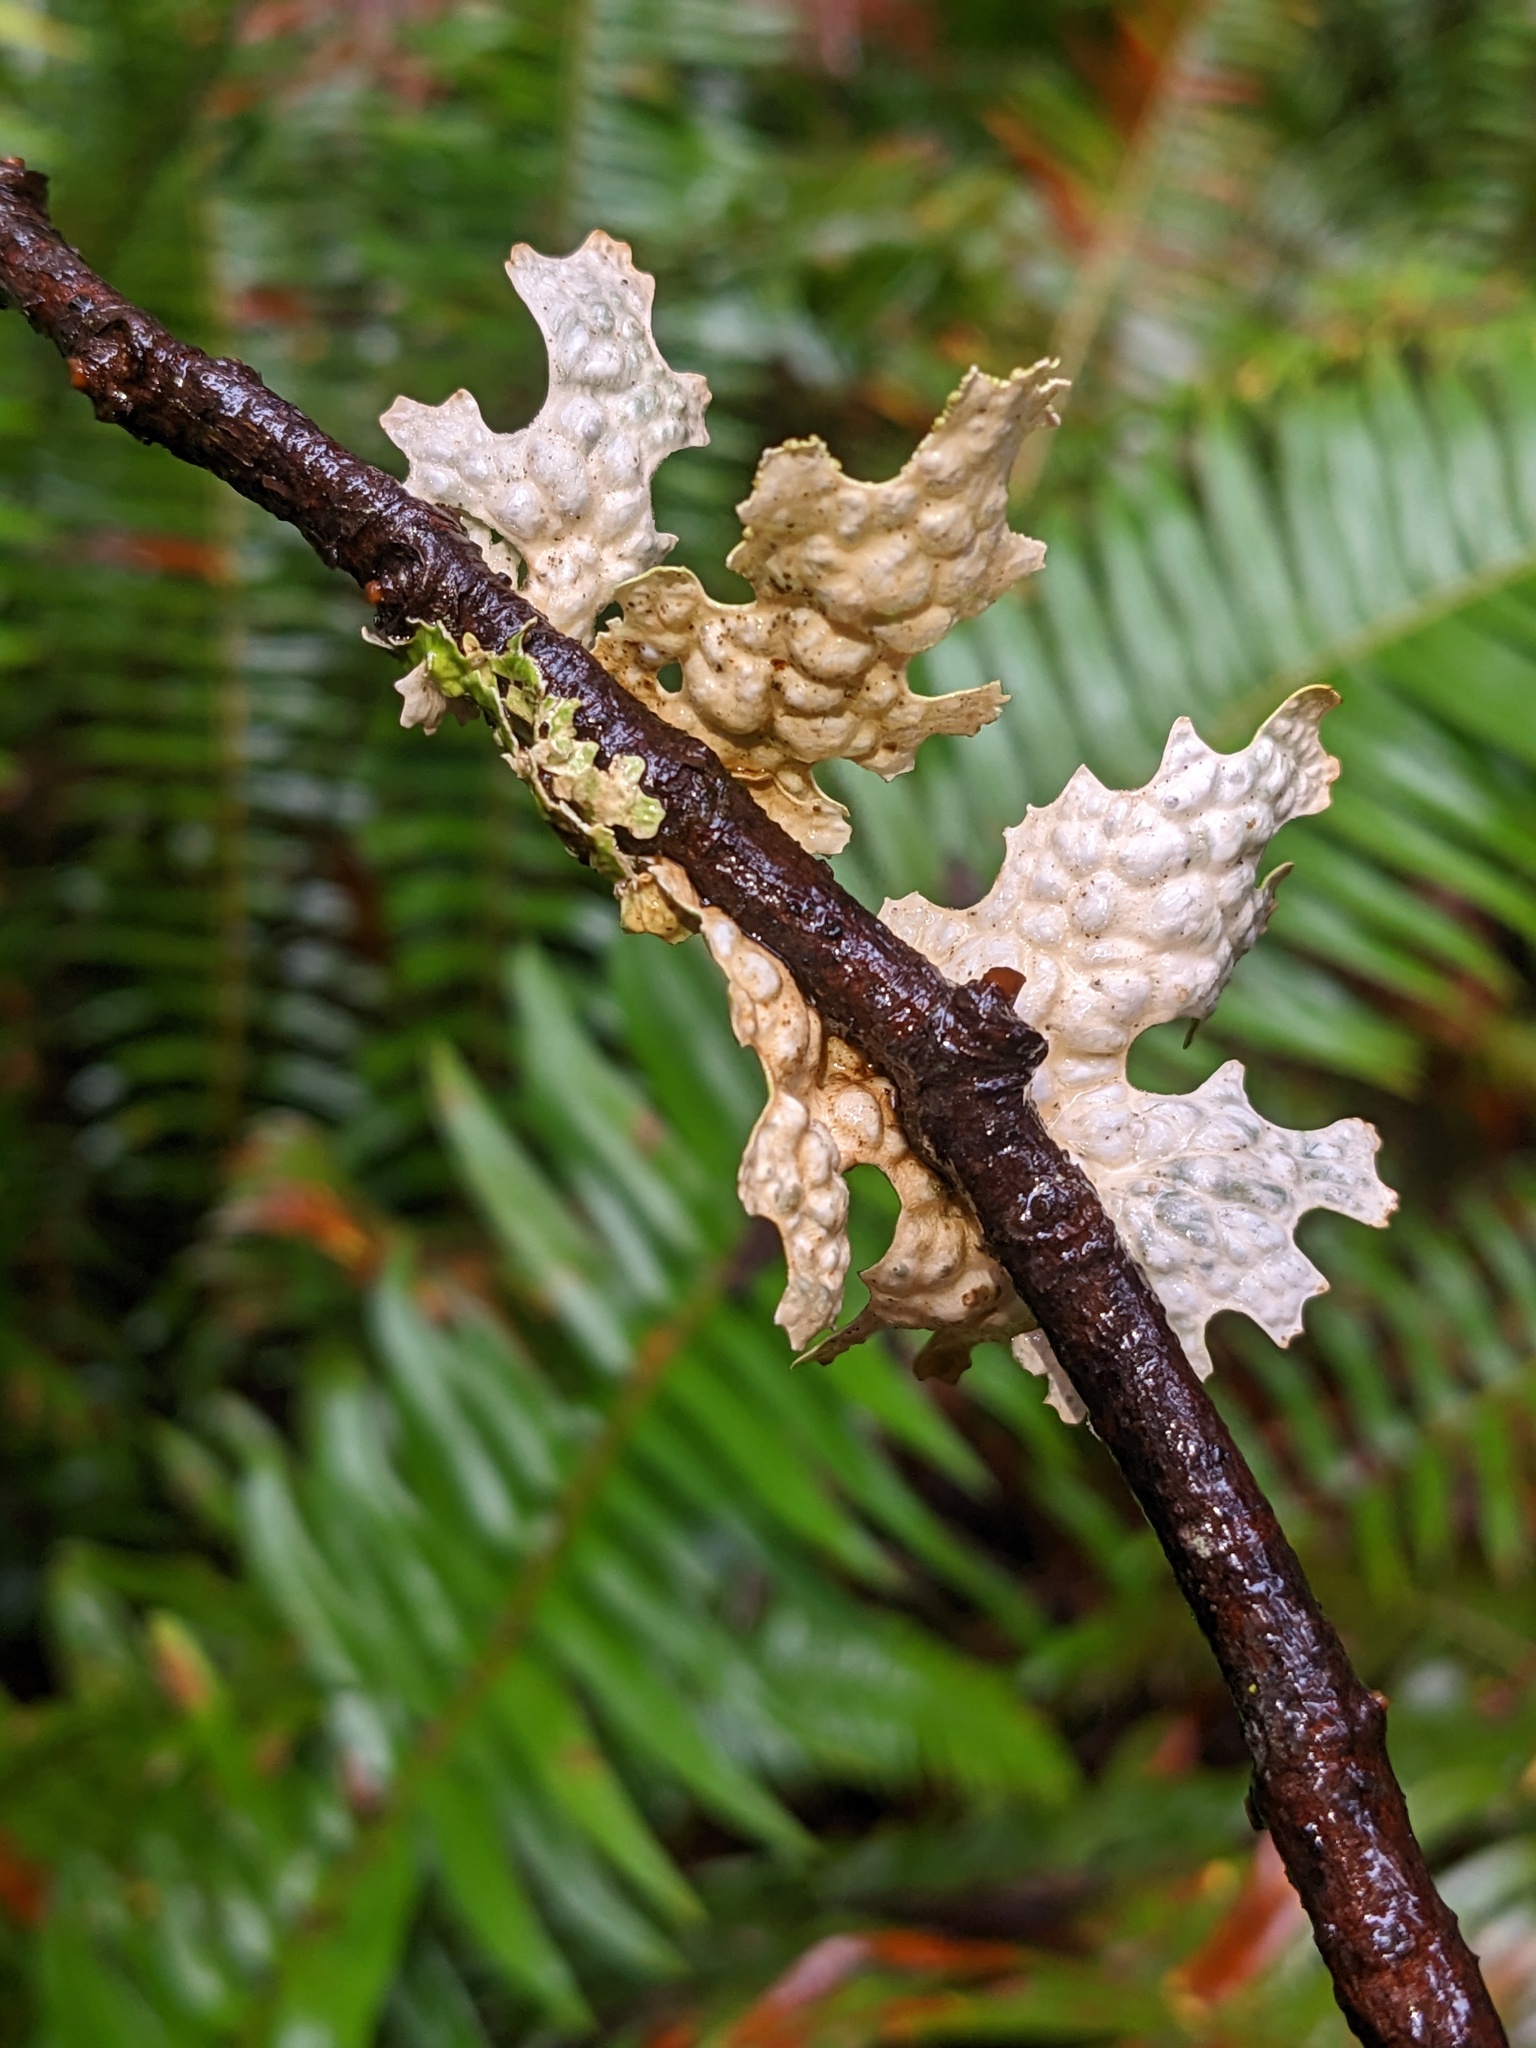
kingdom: Fungi
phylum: Ascomycota
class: Lecanoromycetes
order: Peltigerales
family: Lobariaceae
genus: Lobaria
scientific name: Lobaria pulmonaria
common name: Lungwort
